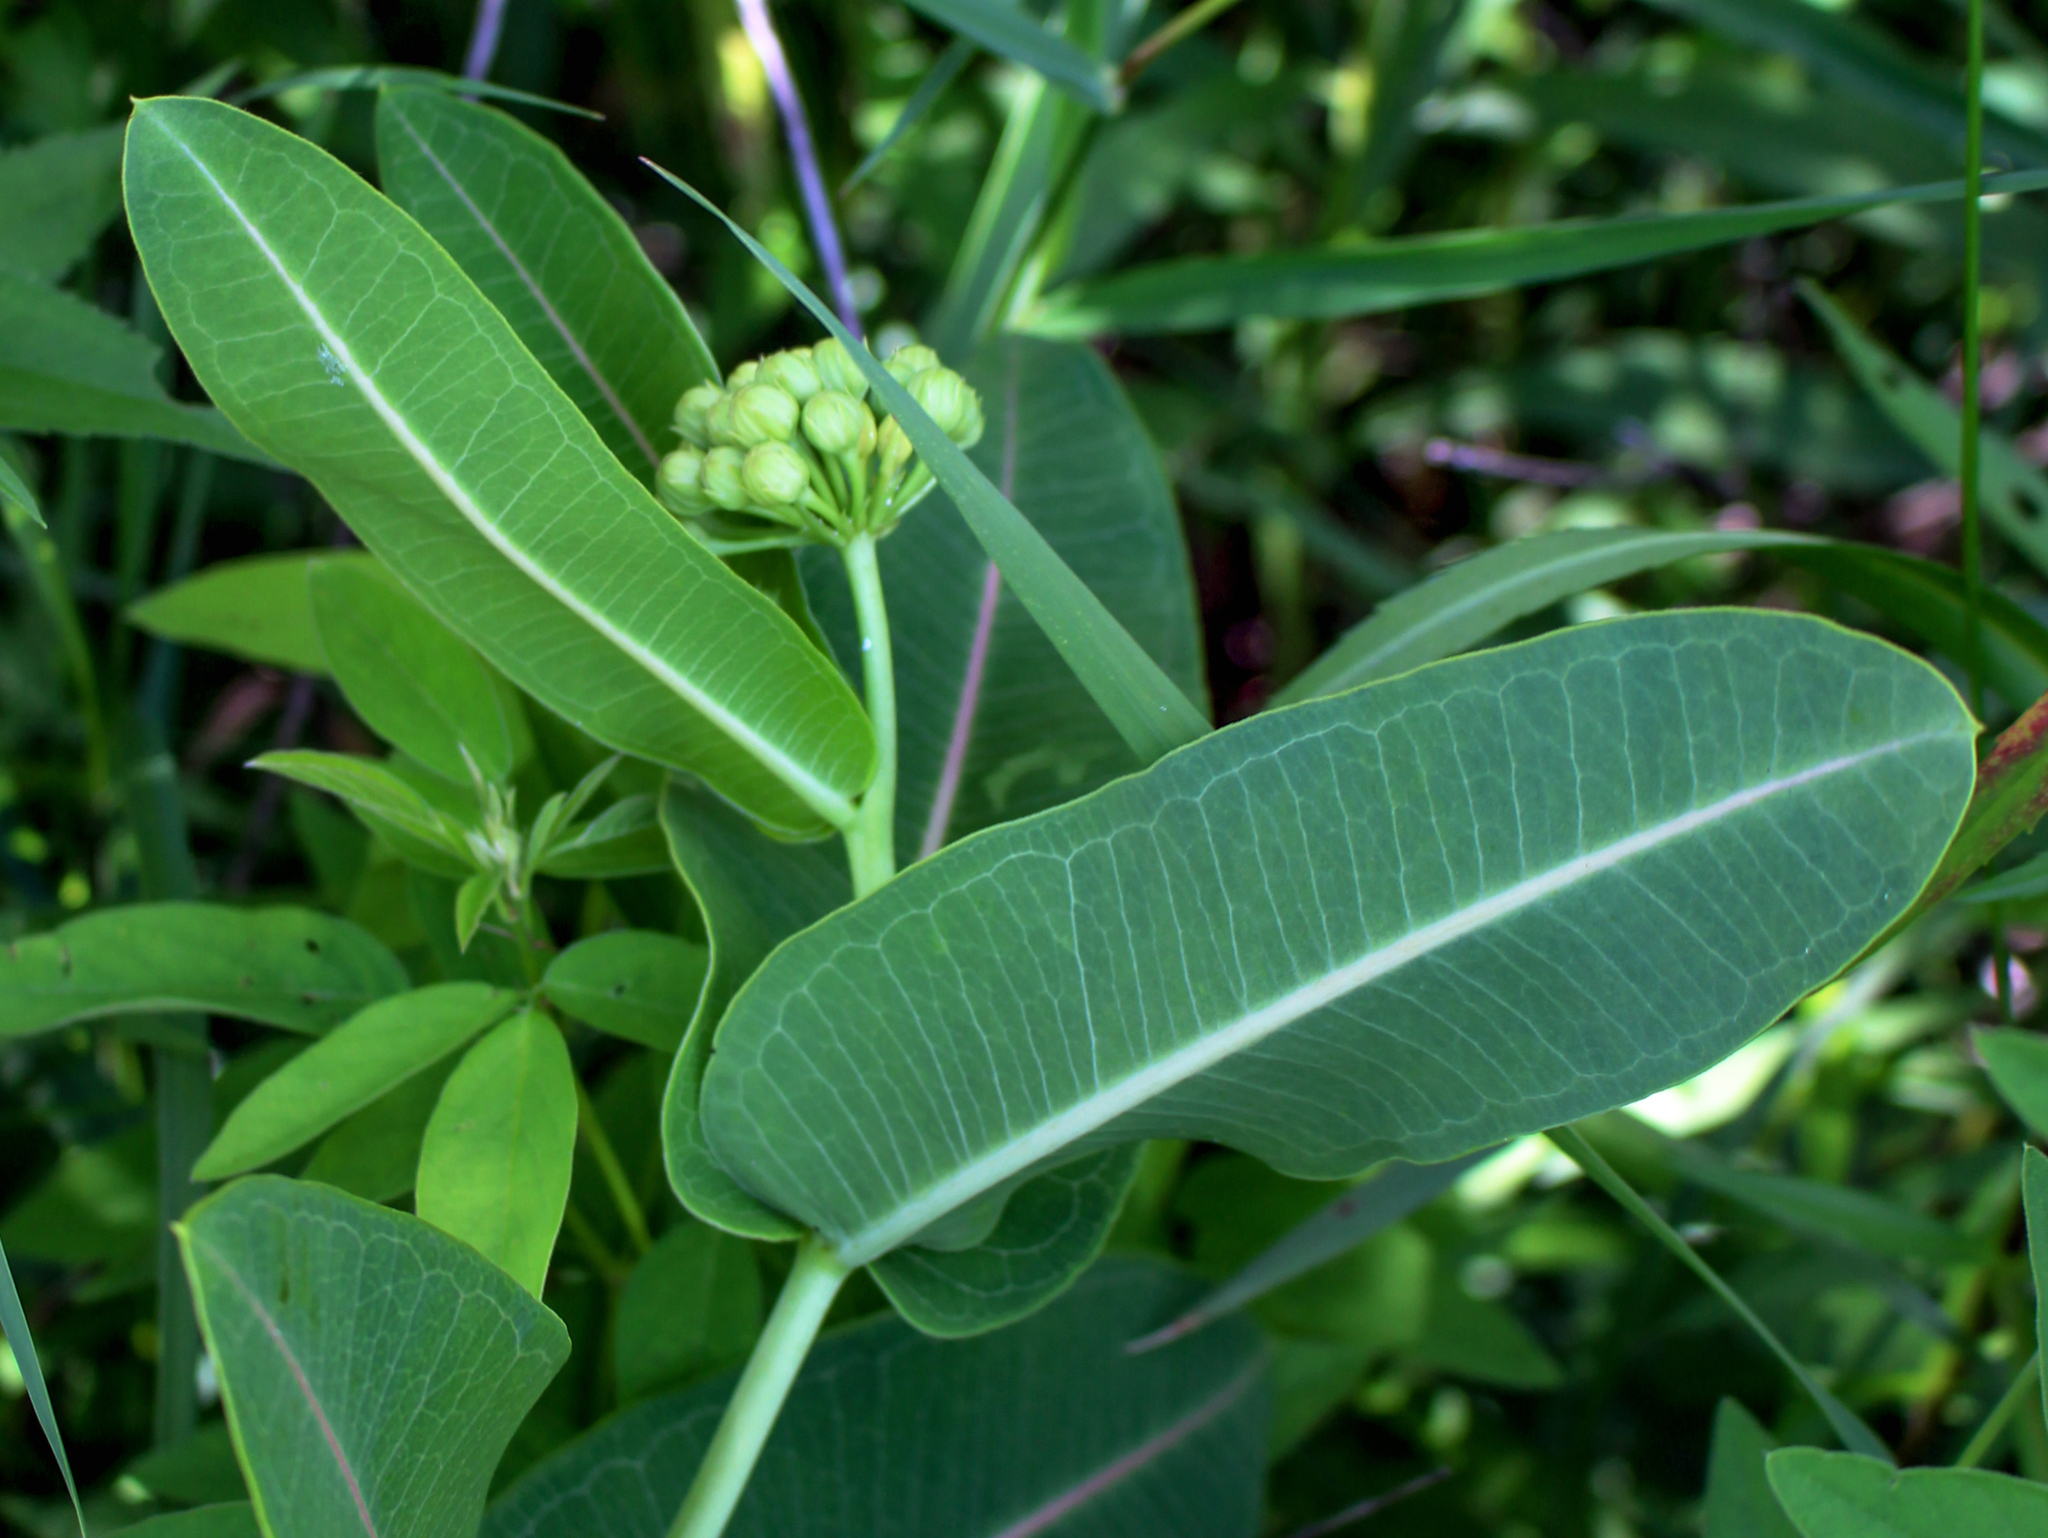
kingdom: Plantae
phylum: Tracheophyta
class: Magnoliopsida
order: Gentianales
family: Apocynaceae
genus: Asclepias
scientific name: Asclepias sullivantii
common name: Prairie milkweed
